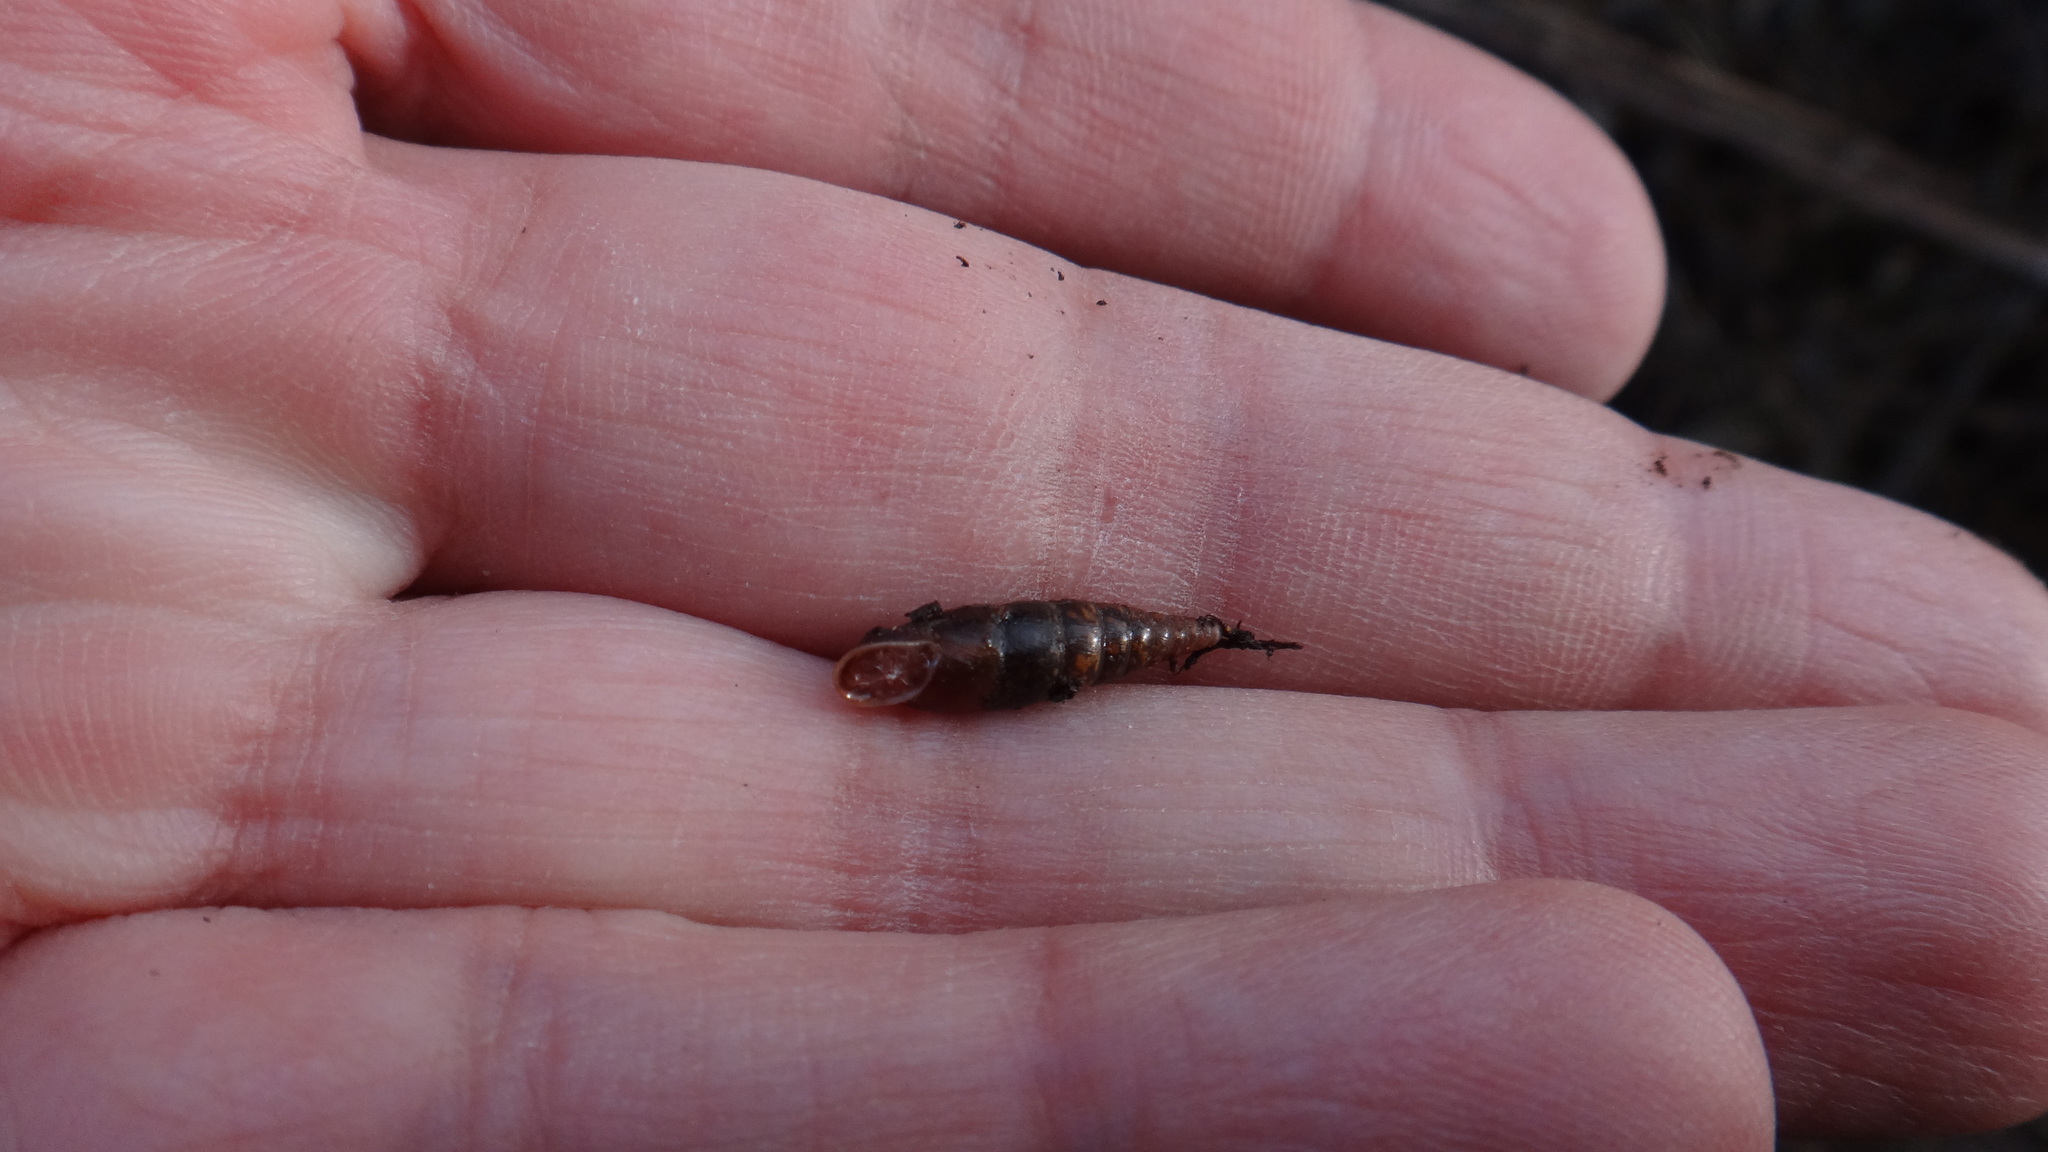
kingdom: Animalia
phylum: Mollusca
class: Gastropoda
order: Stylommatophora
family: Clausiliidae
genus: Cochlodina
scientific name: Cochlodina laminata
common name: Plaited door snail
